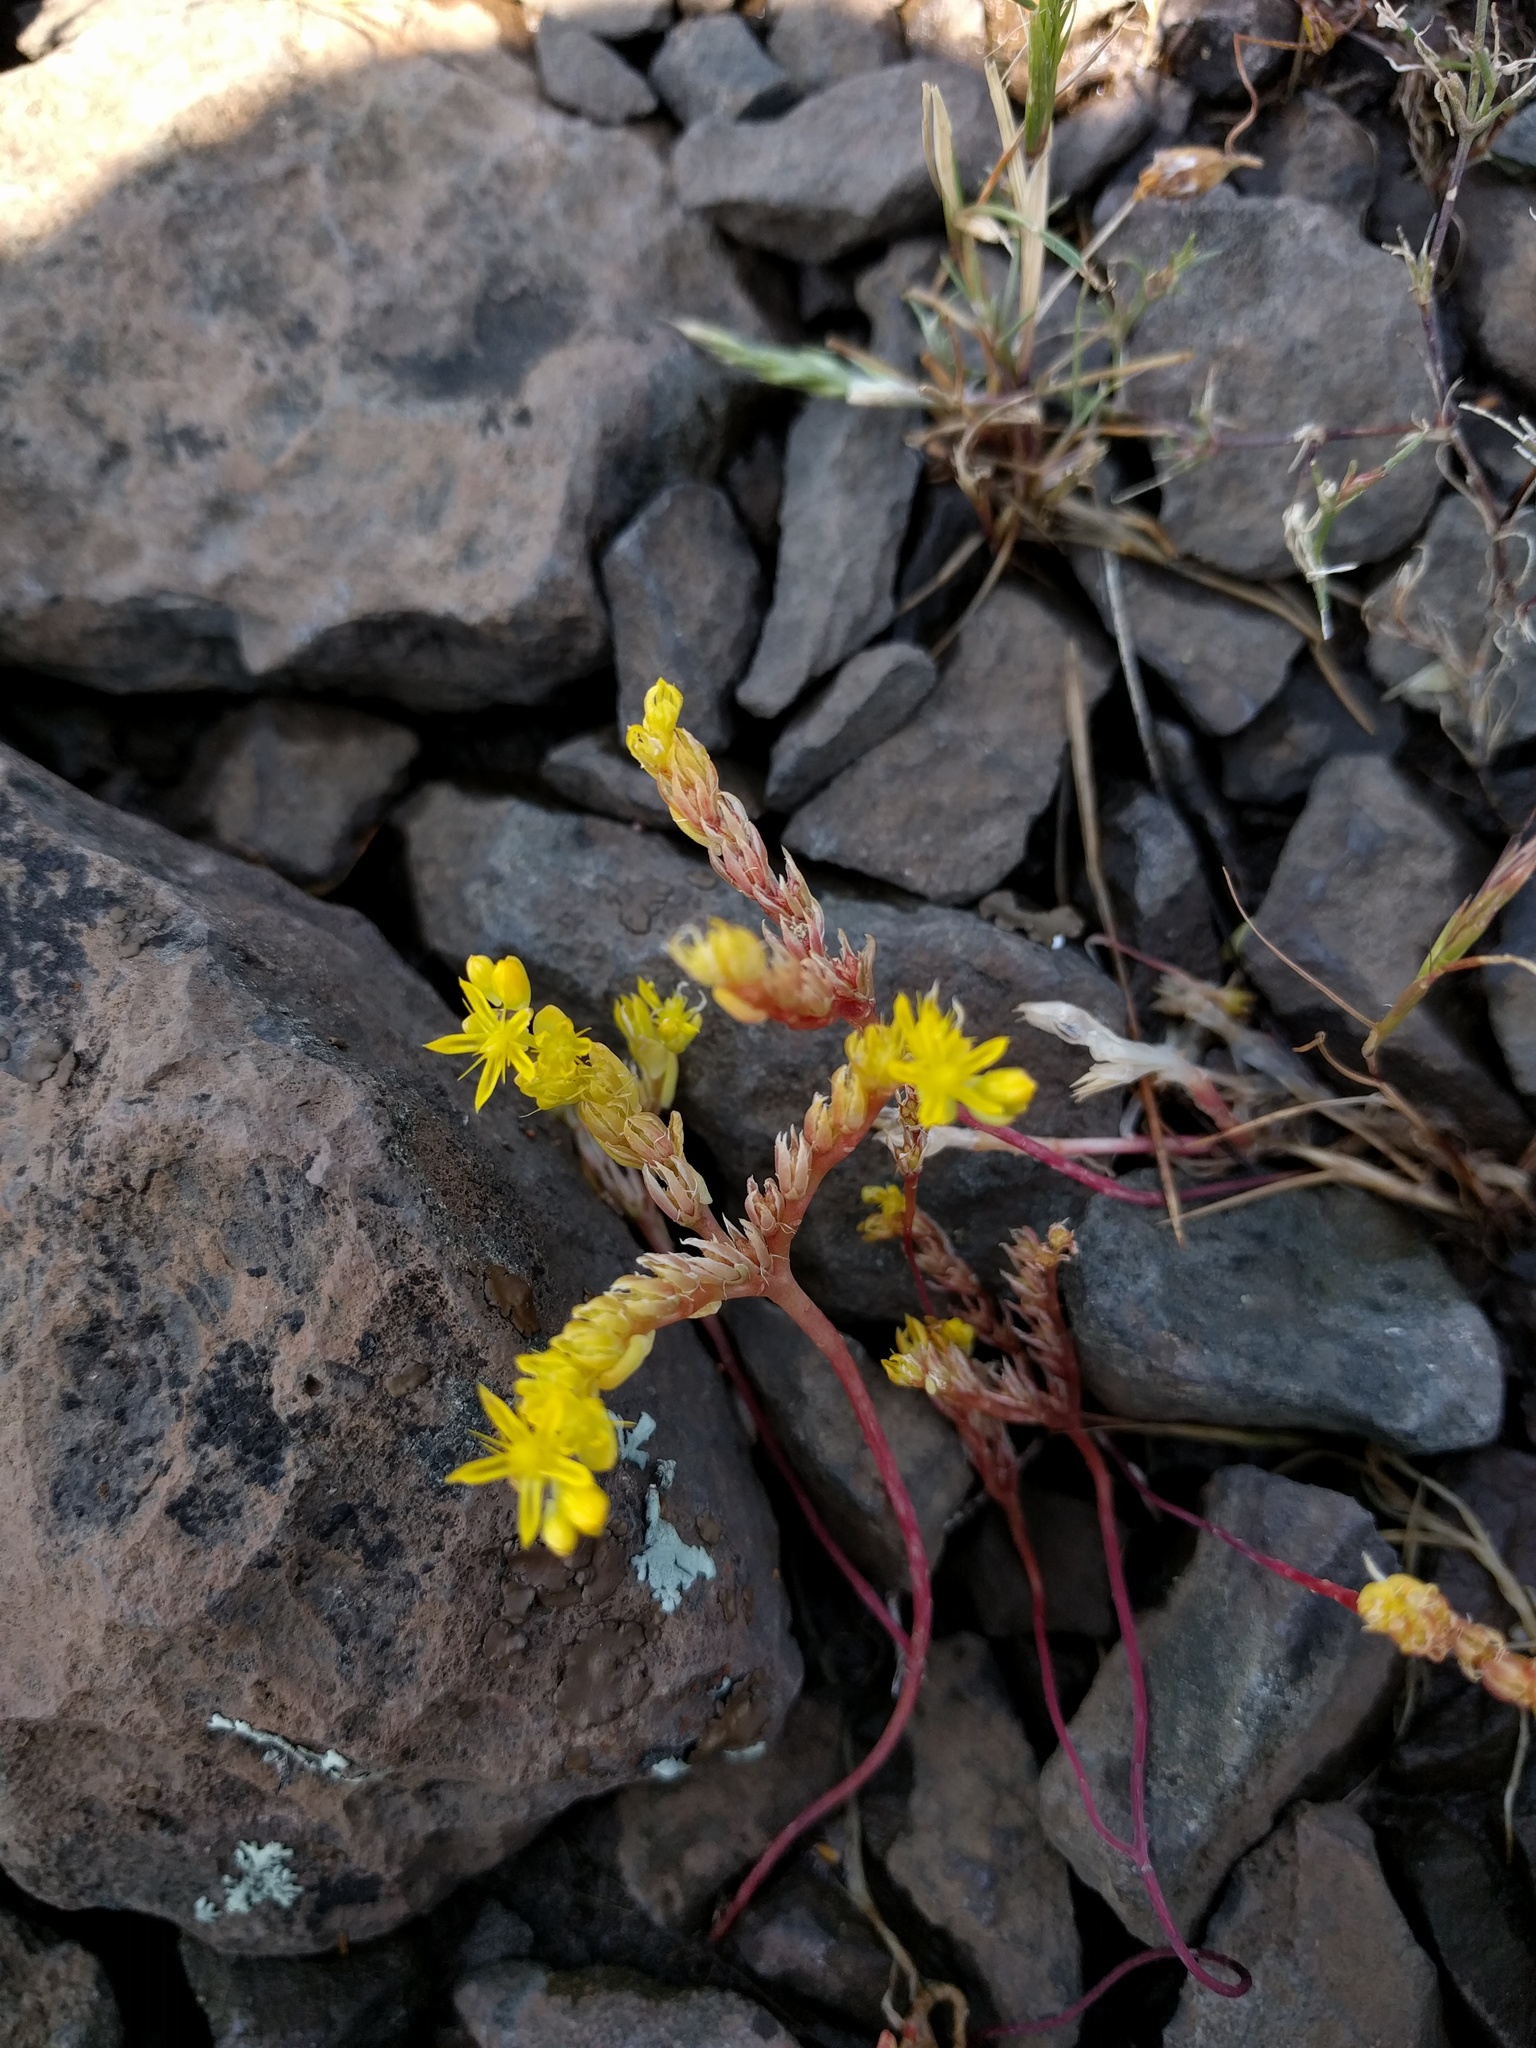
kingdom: Plantae
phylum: Tracheophyta
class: Magnoliopsida
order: Saxifragales
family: Crassulaceae
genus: Sedella
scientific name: Sedella pumila
